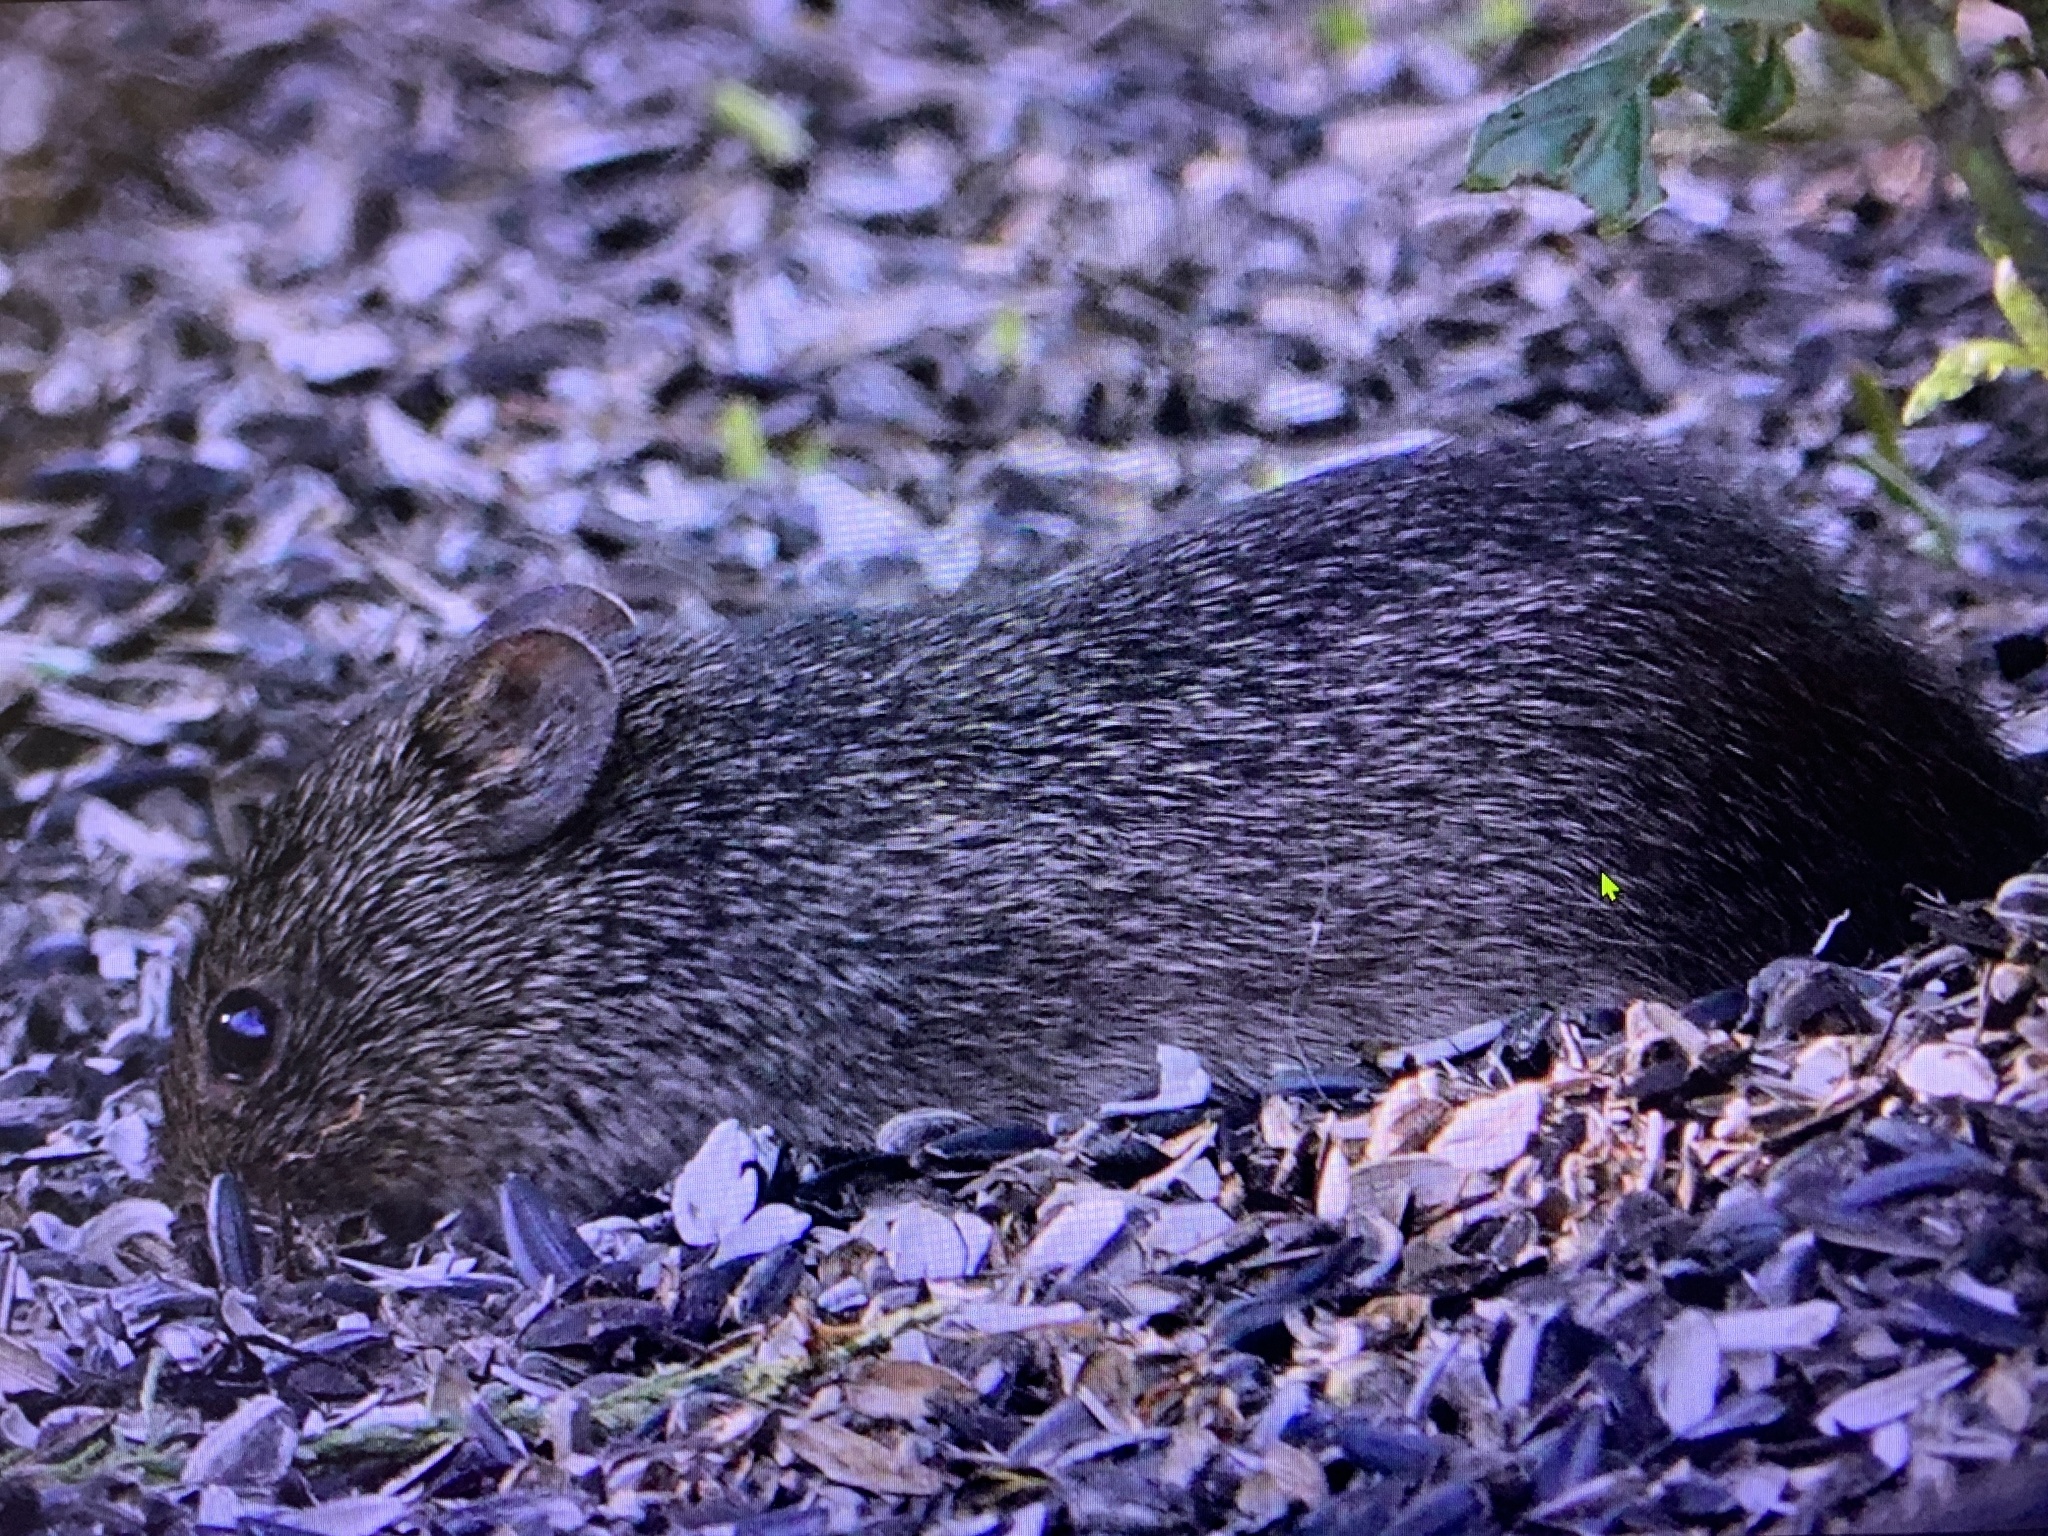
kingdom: Animalia
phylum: Chordata
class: Mammalia
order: Rodentia
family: Cricetidae
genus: Sigmodon
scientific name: Sigmodon hispidus
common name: Hispid cotton rat
